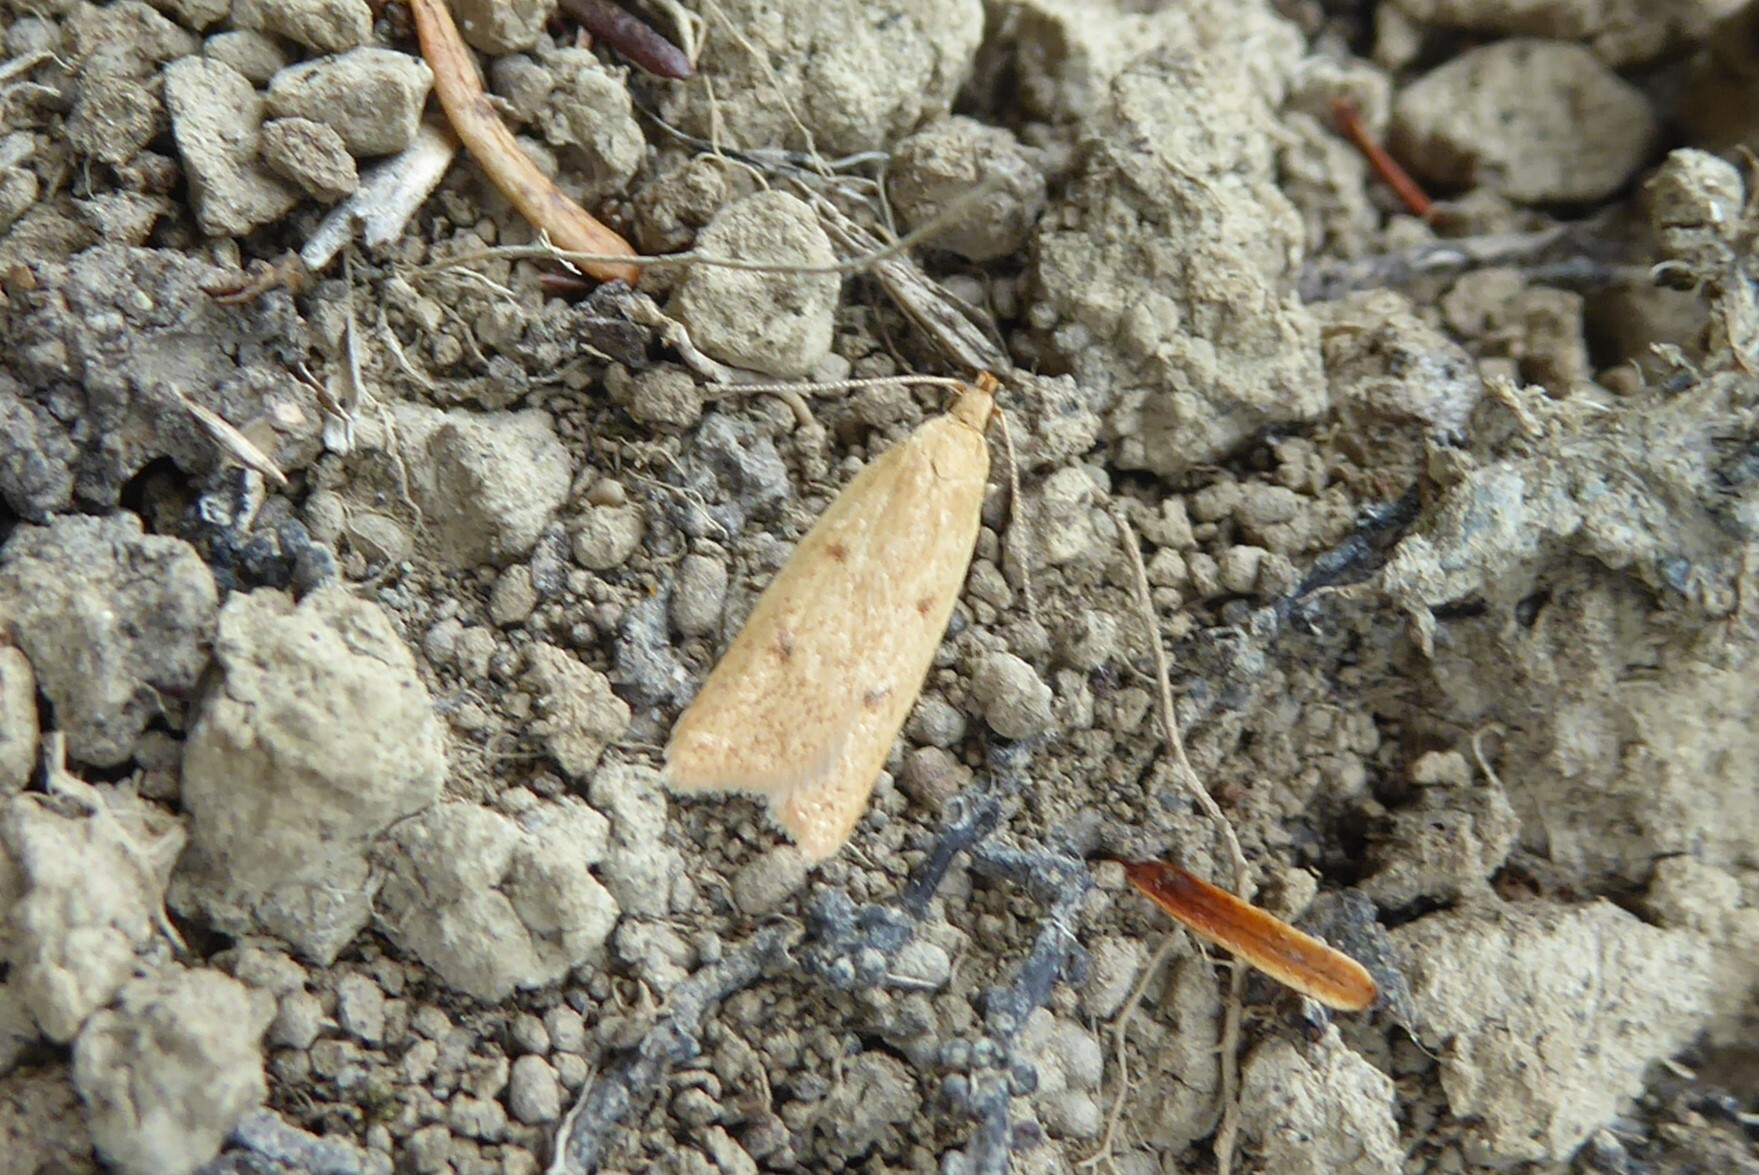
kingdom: Animalia
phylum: Arthropoda
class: Insecta
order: Lepidoptera
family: Oecophoridae
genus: Gymnobathra
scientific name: Gymnobathra sarcoxantha
